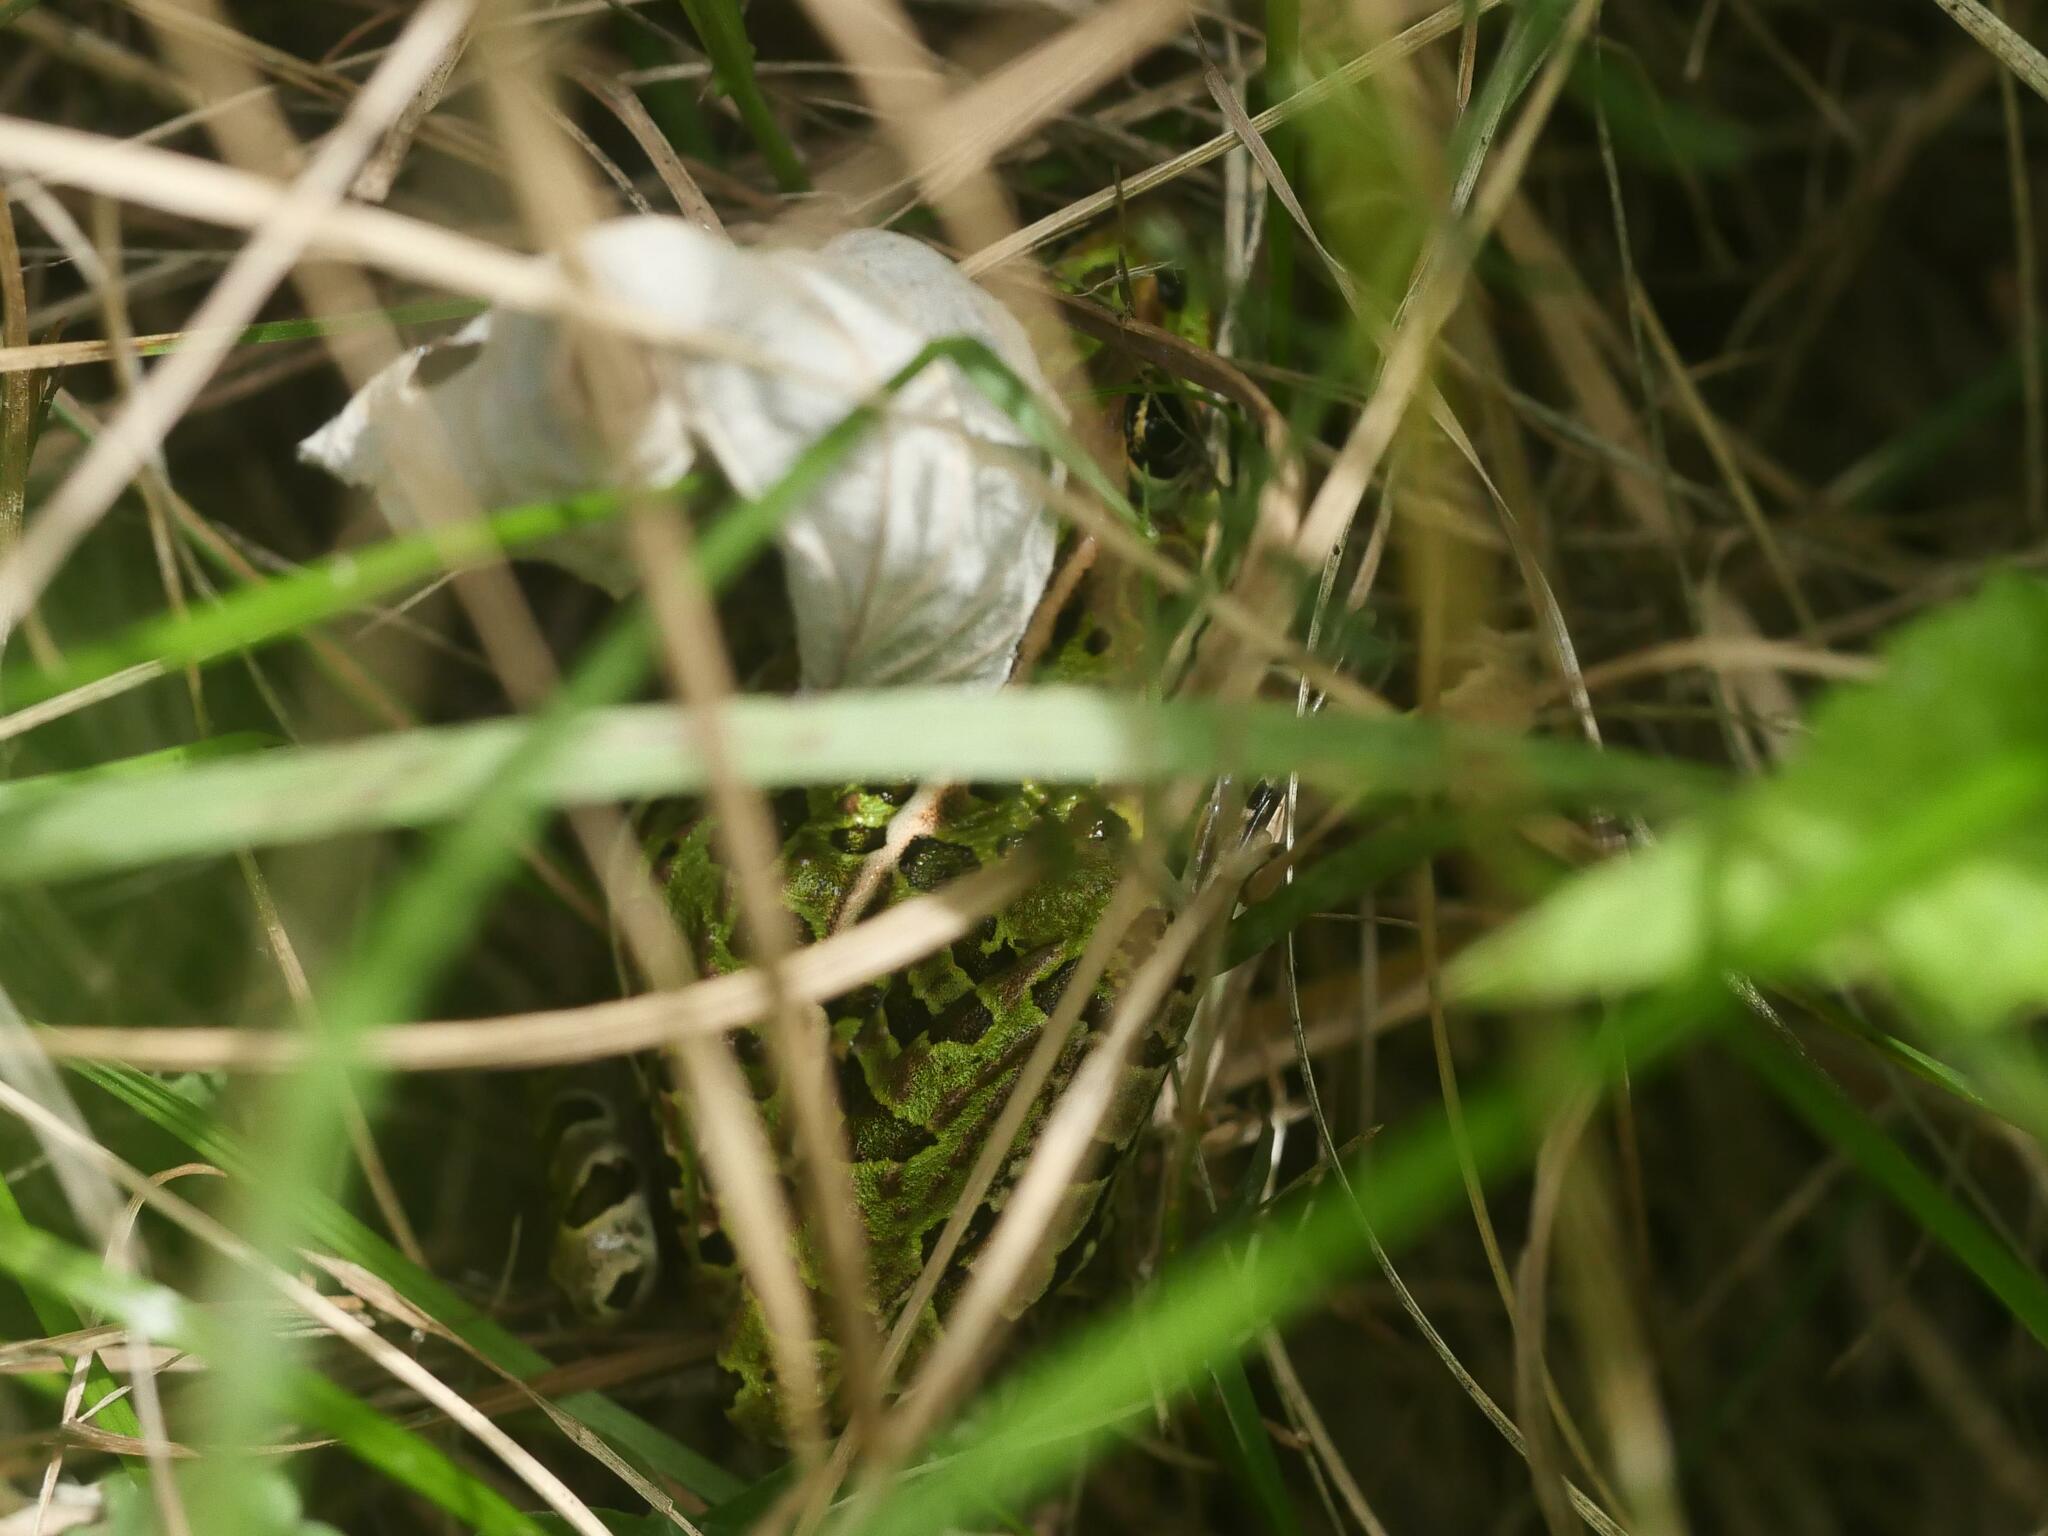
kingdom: Animalia
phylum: Chordata
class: Amphibia
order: Anura
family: Ranidae
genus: Lithobates
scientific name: Lithobates pipiens
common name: Northern leopard frog
